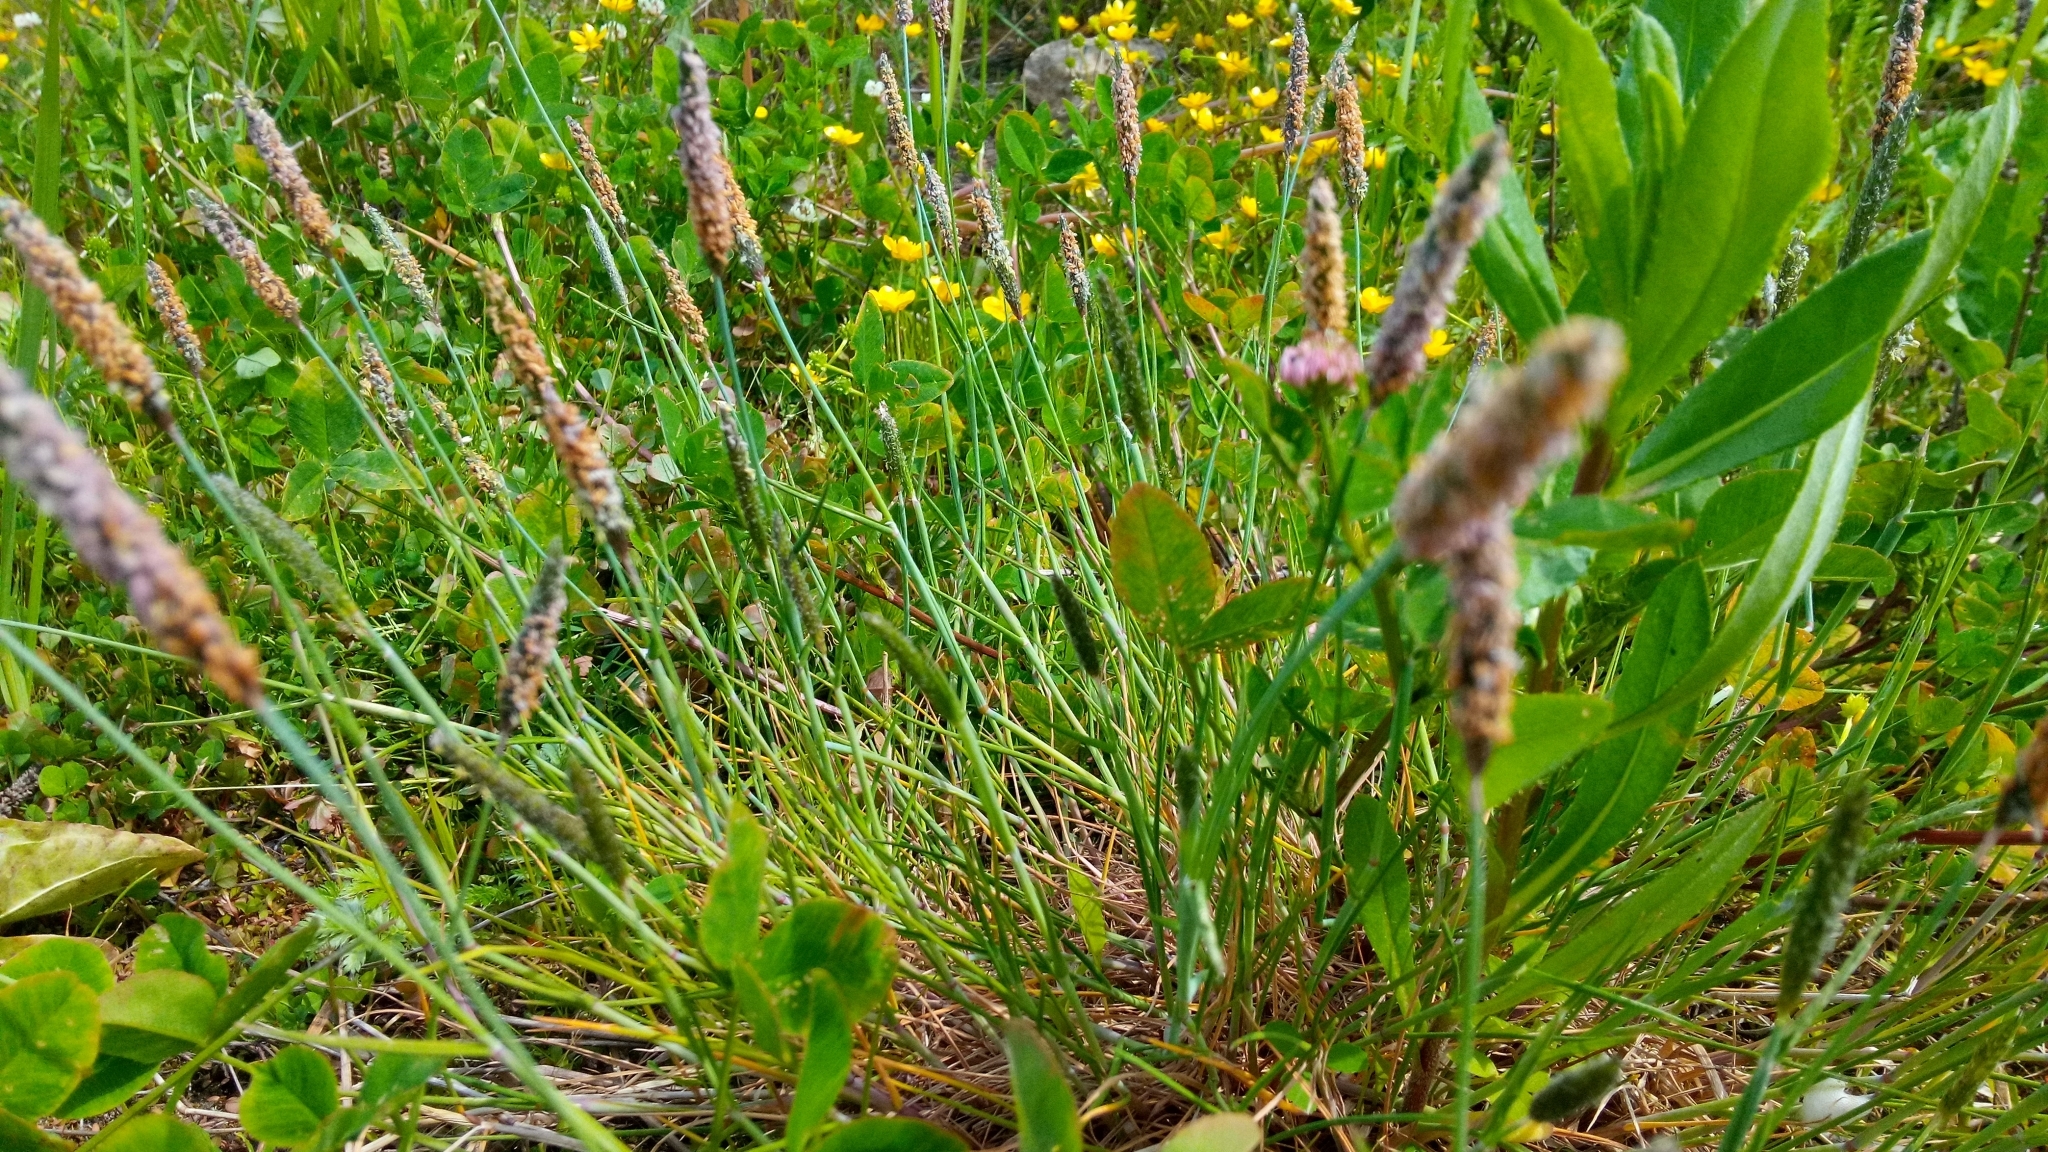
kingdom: Plantae
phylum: Tracheophyta
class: Liliopsida
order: Poales
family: Poaceae
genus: Alopecurus
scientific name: Alopecurus geniculatus
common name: Water foxtail
